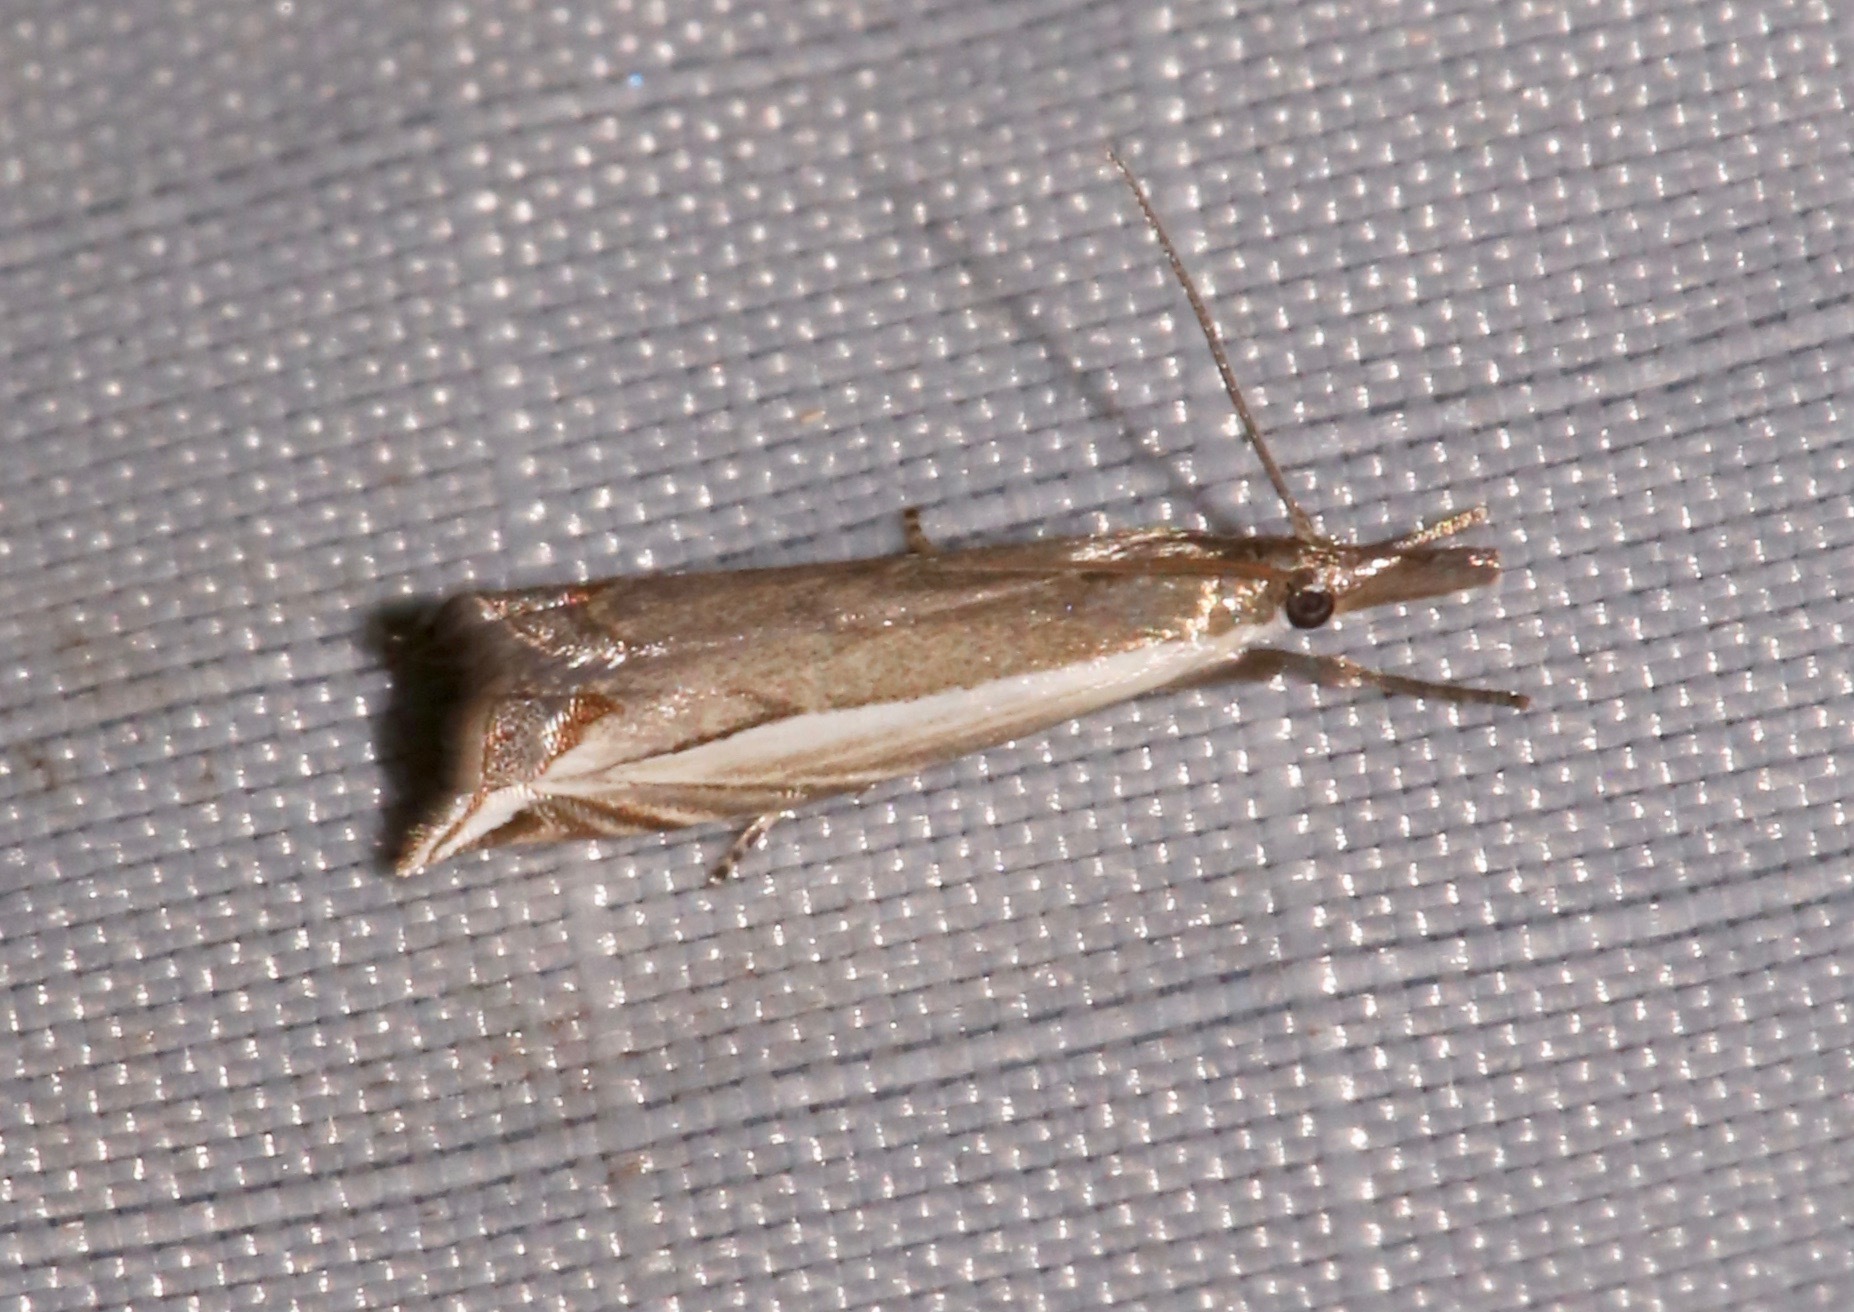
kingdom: Animalia
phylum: Arthropoda
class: Insecta
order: Lepidoptera
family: Crambidae
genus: Raphiptera
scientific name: Raphiptera argillaceellus
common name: Diminutive grass-veneer
